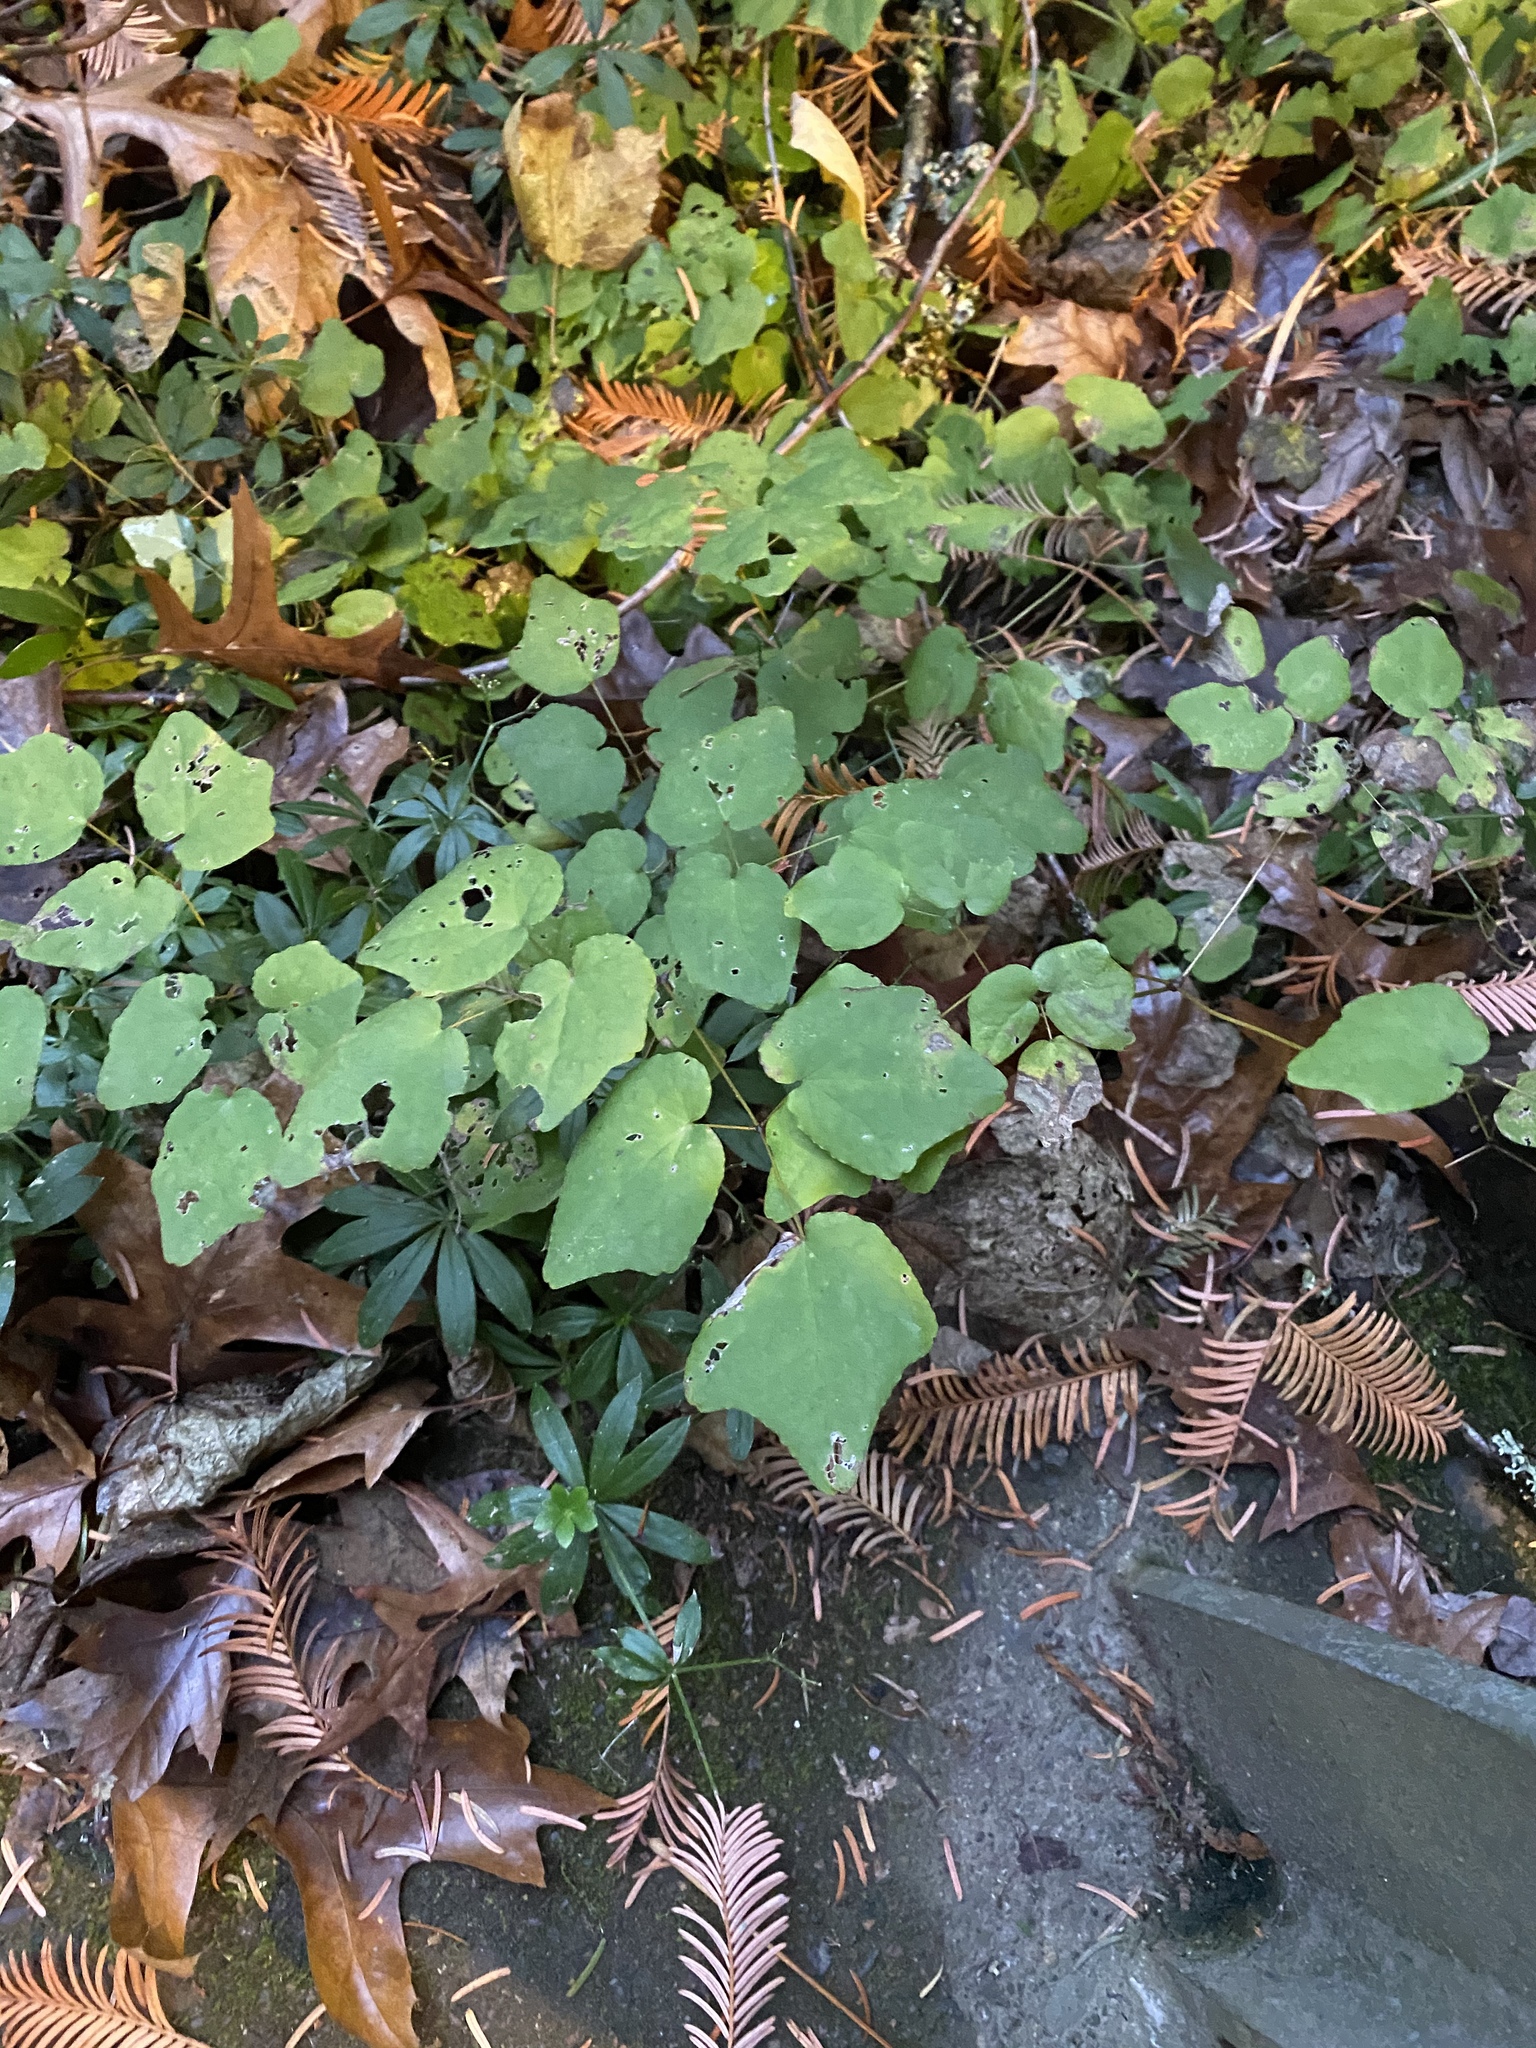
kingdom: Plantae
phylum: Tracheophyta
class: Magnoliopsida
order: Ranunculales
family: Berberidaceae
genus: Vancouveria
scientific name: Vancouveria hexandra
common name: Northern inside-out-flower
